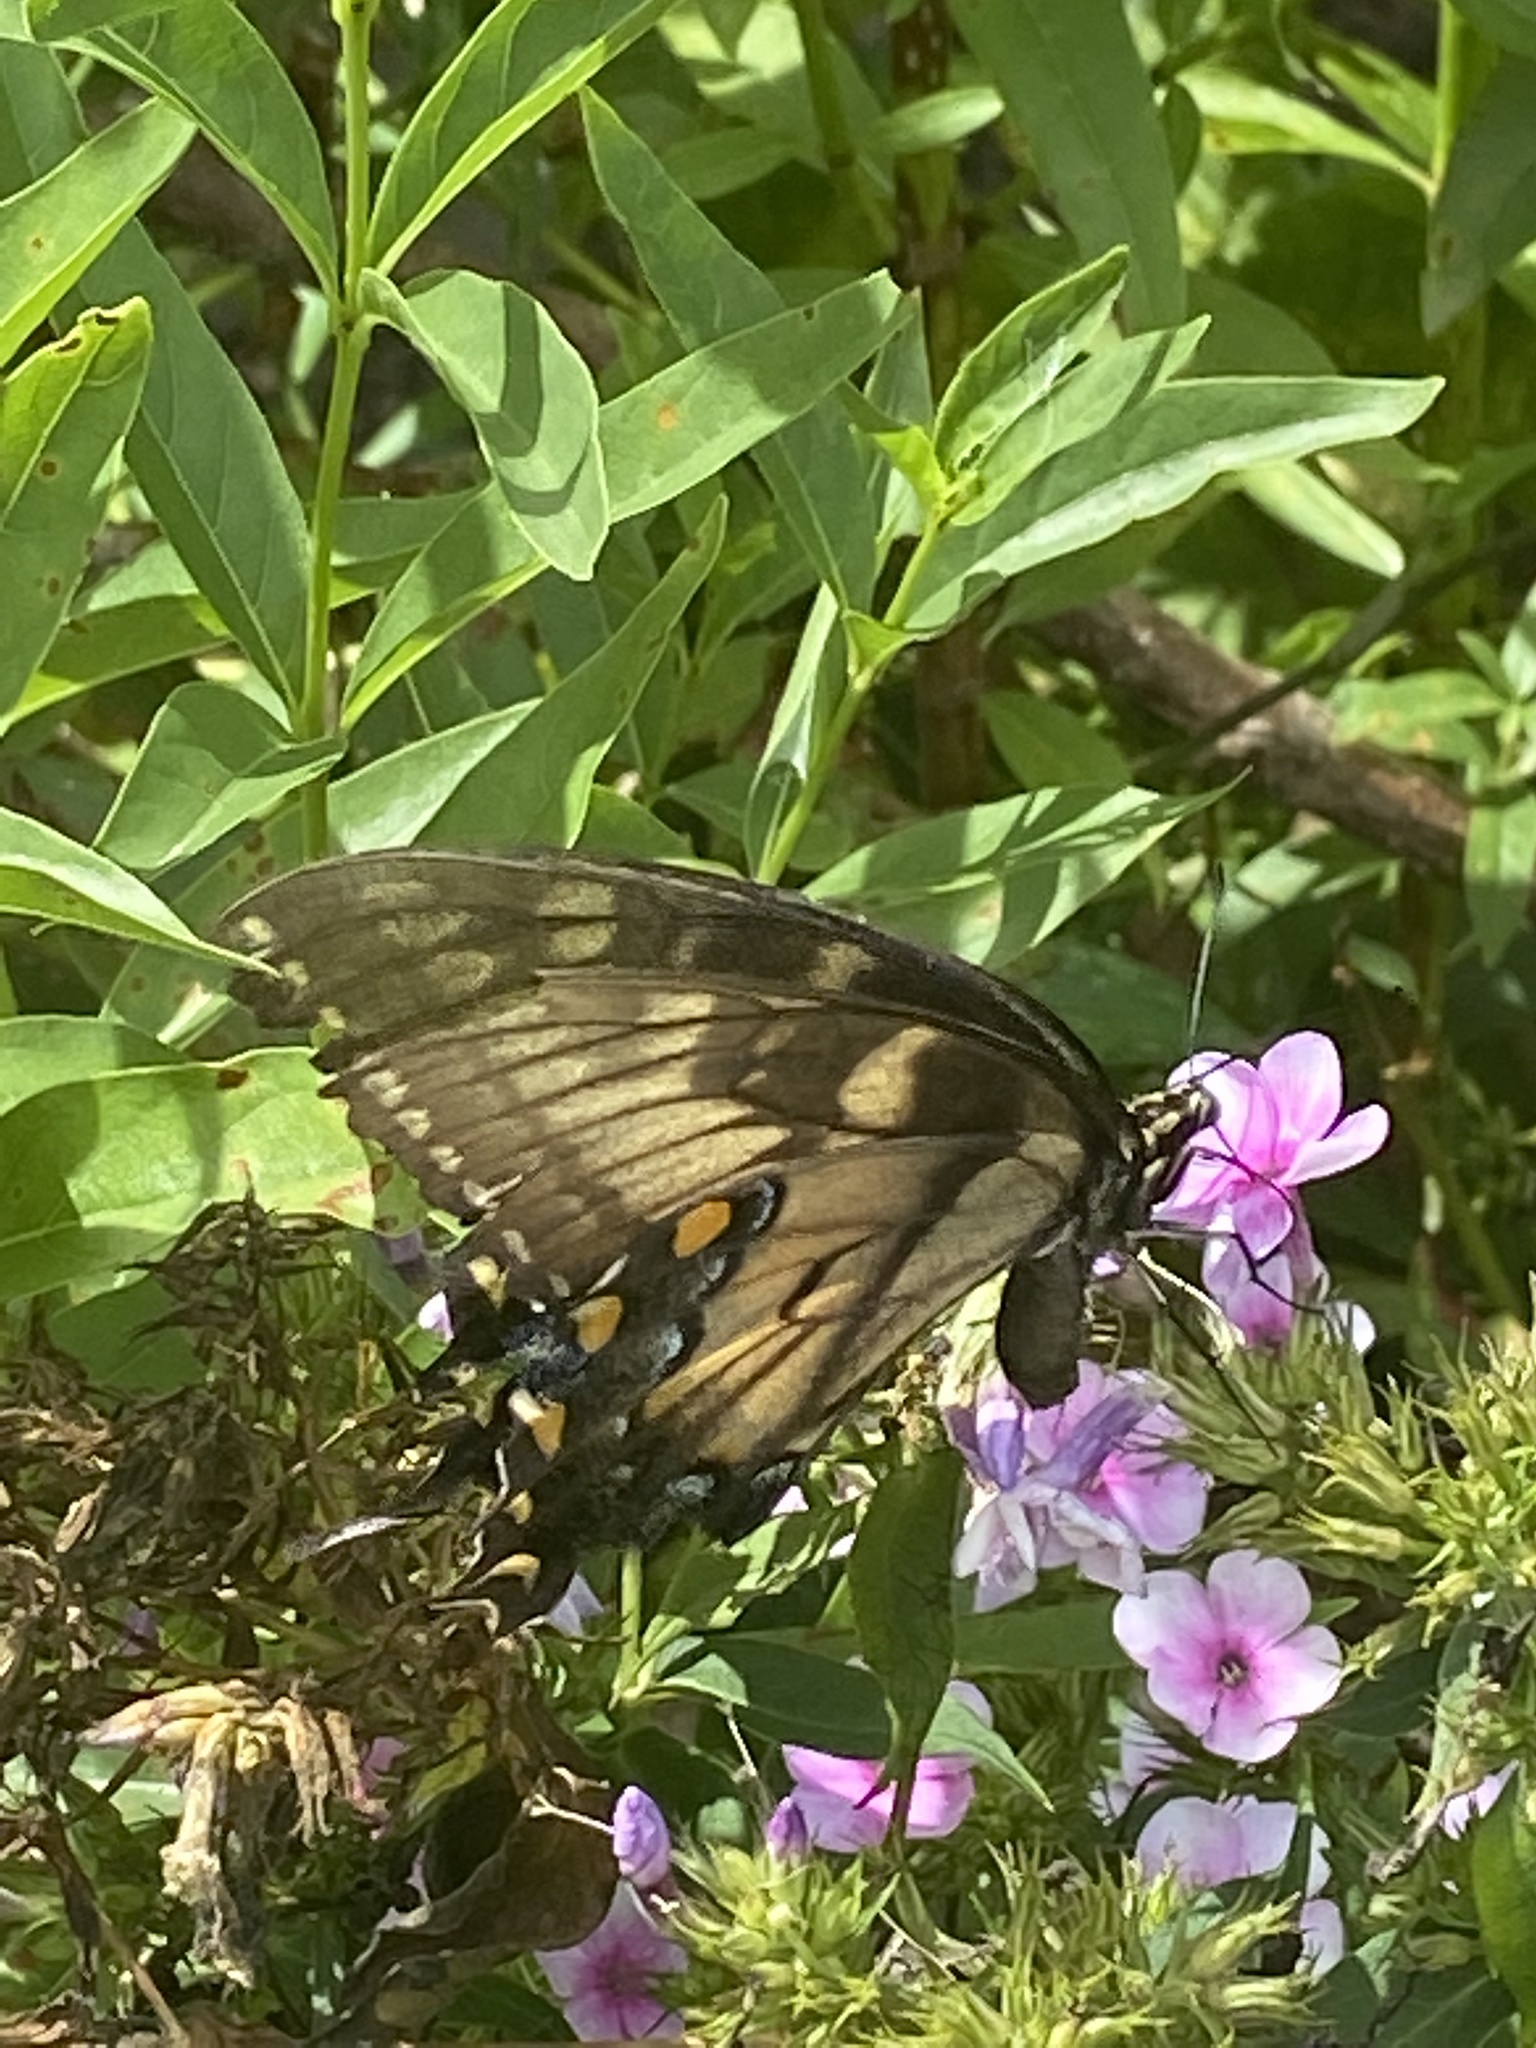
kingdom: Animalia
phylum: Arthropoda
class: Insecta
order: Lepidoptera
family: Papilionidae
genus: Papilio
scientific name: Papilio glaucus
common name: Tiger swallowtail
